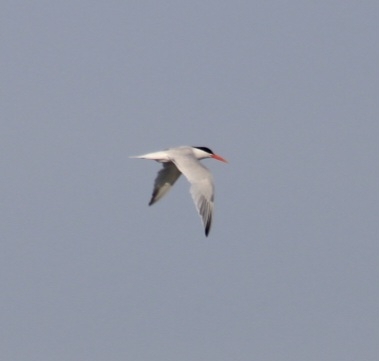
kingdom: Animalia
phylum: Chordata
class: Aves
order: Charadriiformes
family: Laridae
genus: Thalasseus
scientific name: Thalasseus elegans
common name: Elegant tern
